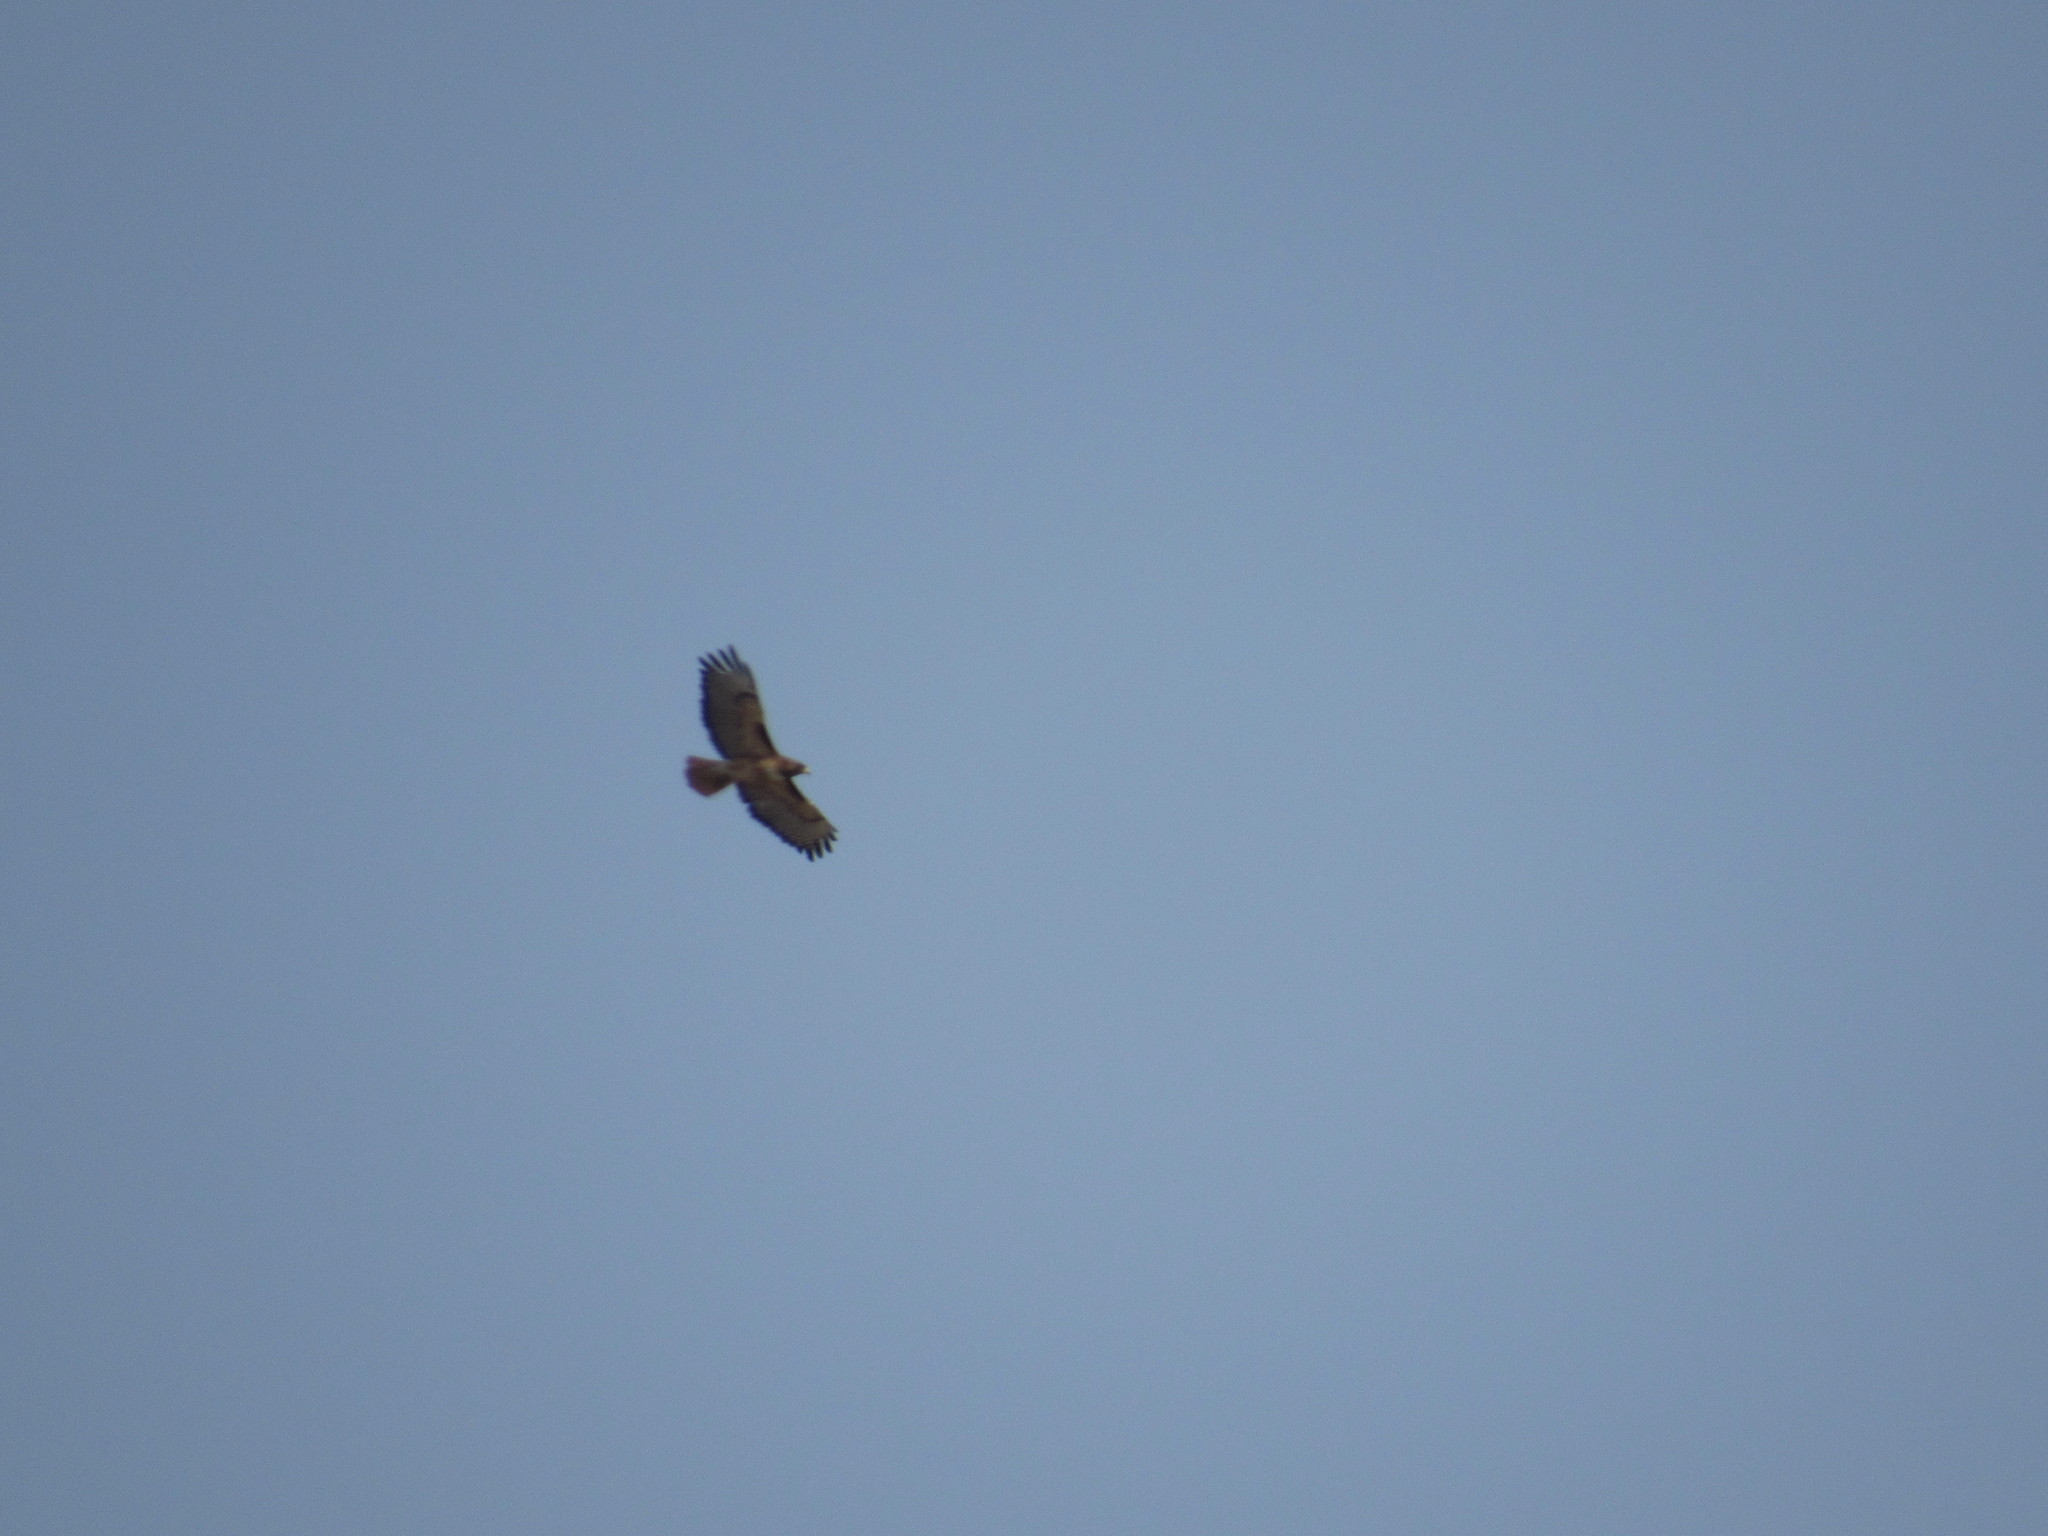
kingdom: Animalia
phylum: Chordata
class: Aves
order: Accipitriformes
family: Accipitridae
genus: Buteo
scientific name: Buteo jamaicensis
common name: Red-tailed hawk
